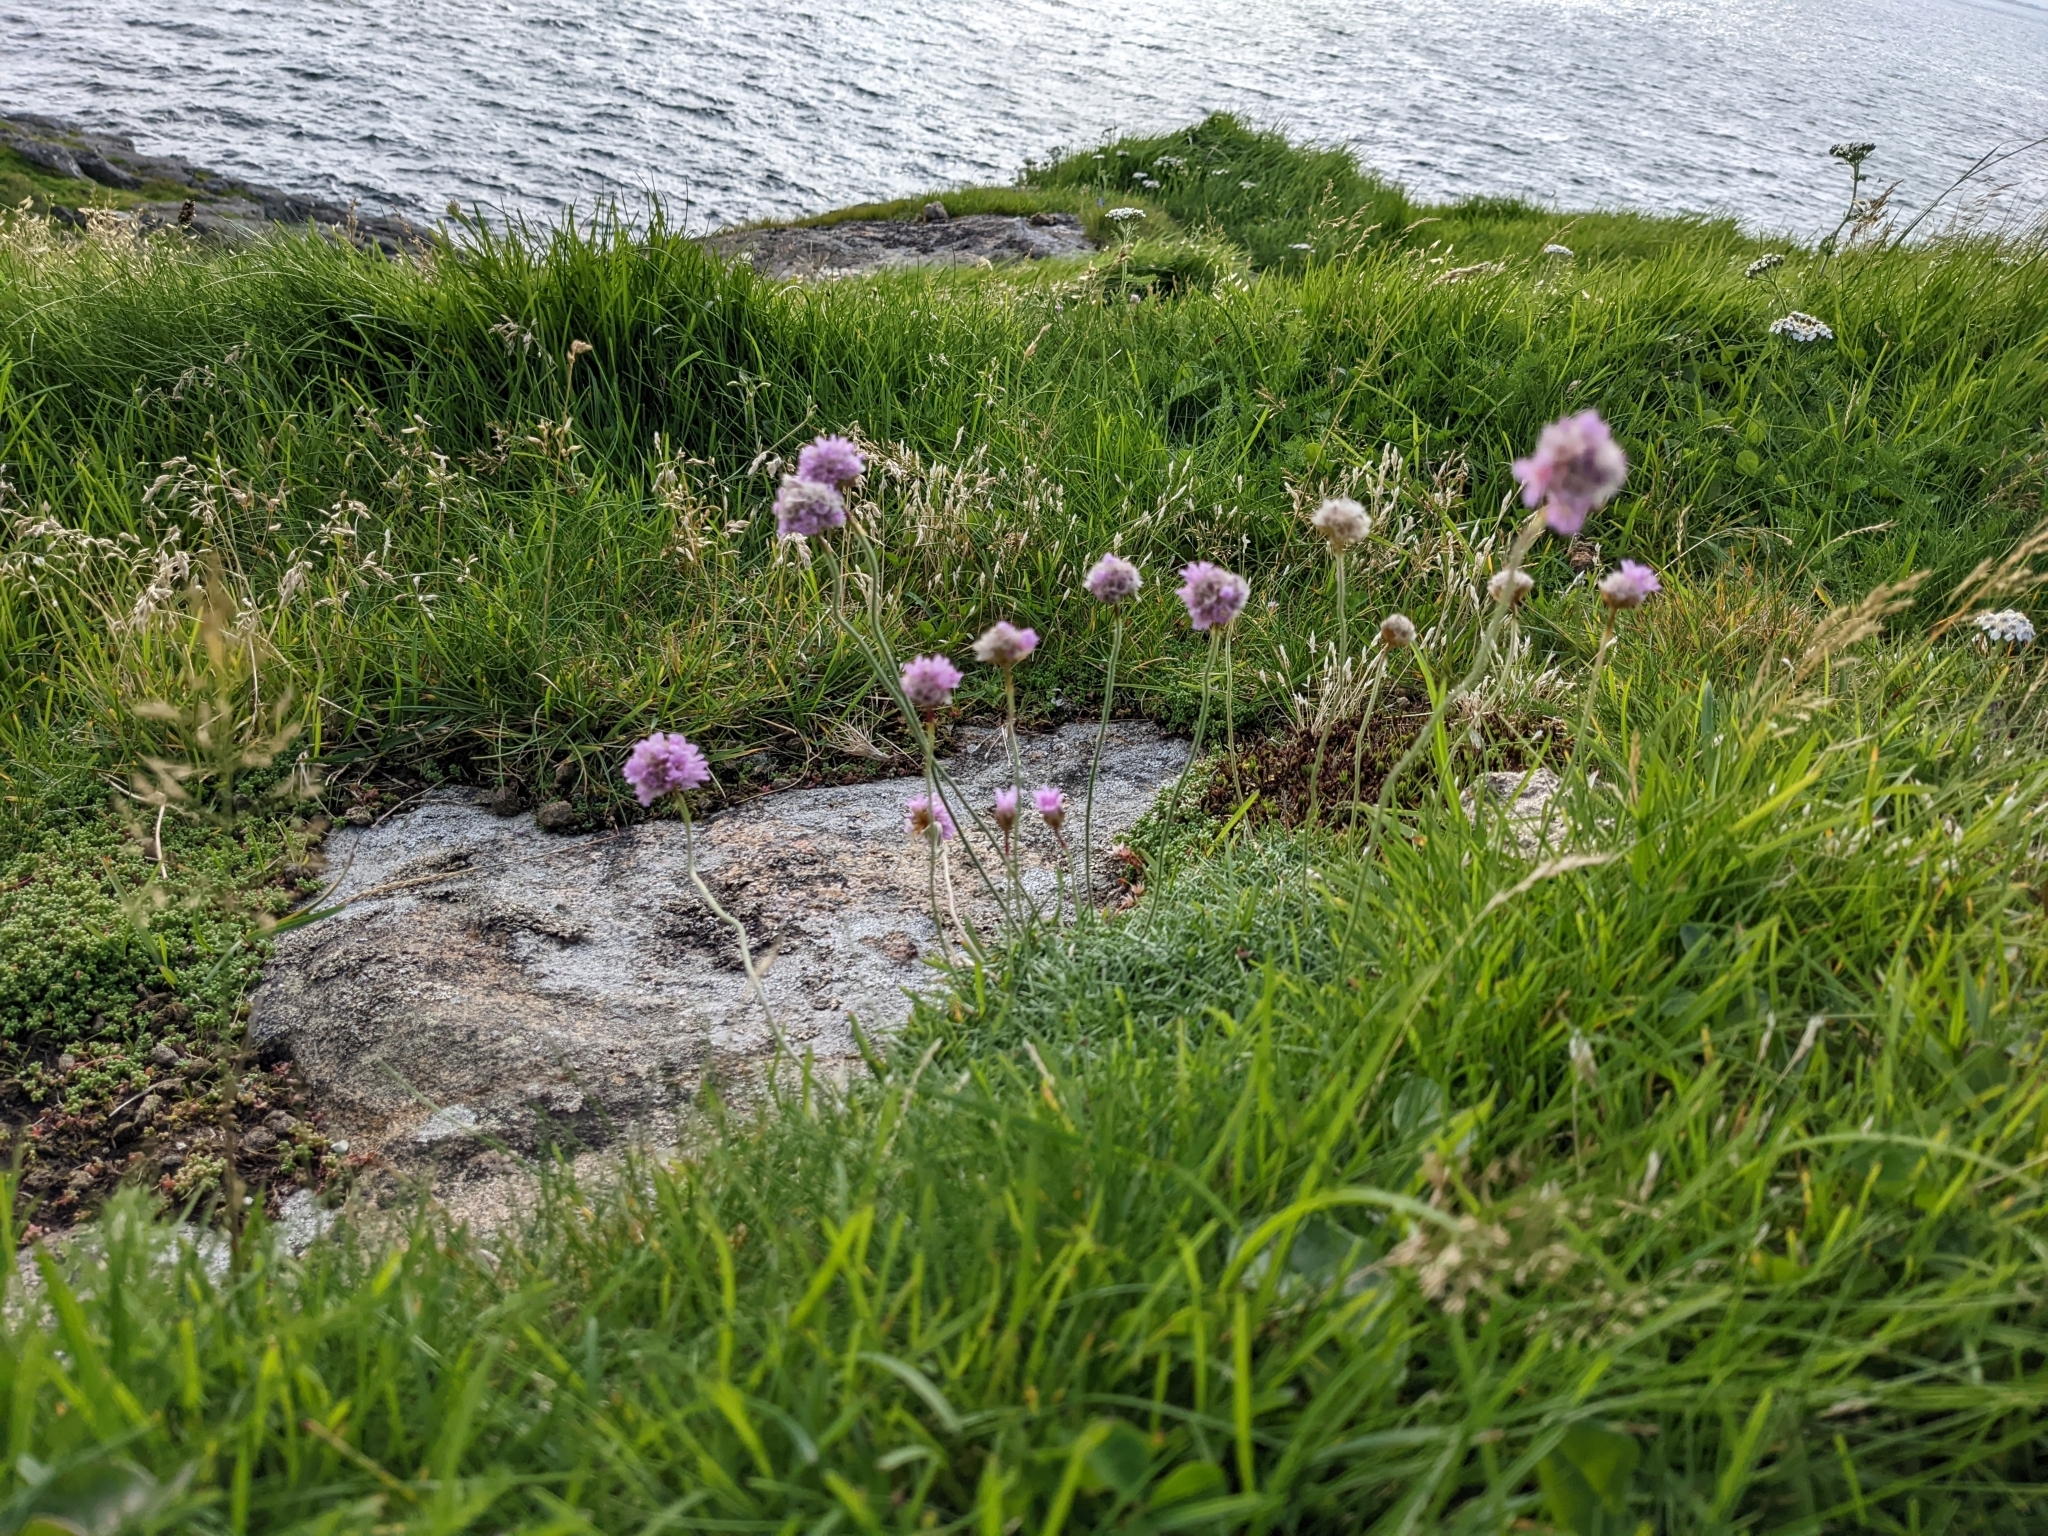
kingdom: Plantae
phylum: Tracheophyta
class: Magnoliopsida
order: Caryophyllales
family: Plumbaginaceae
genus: Armeria
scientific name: Armeria maritima
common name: Thrift
